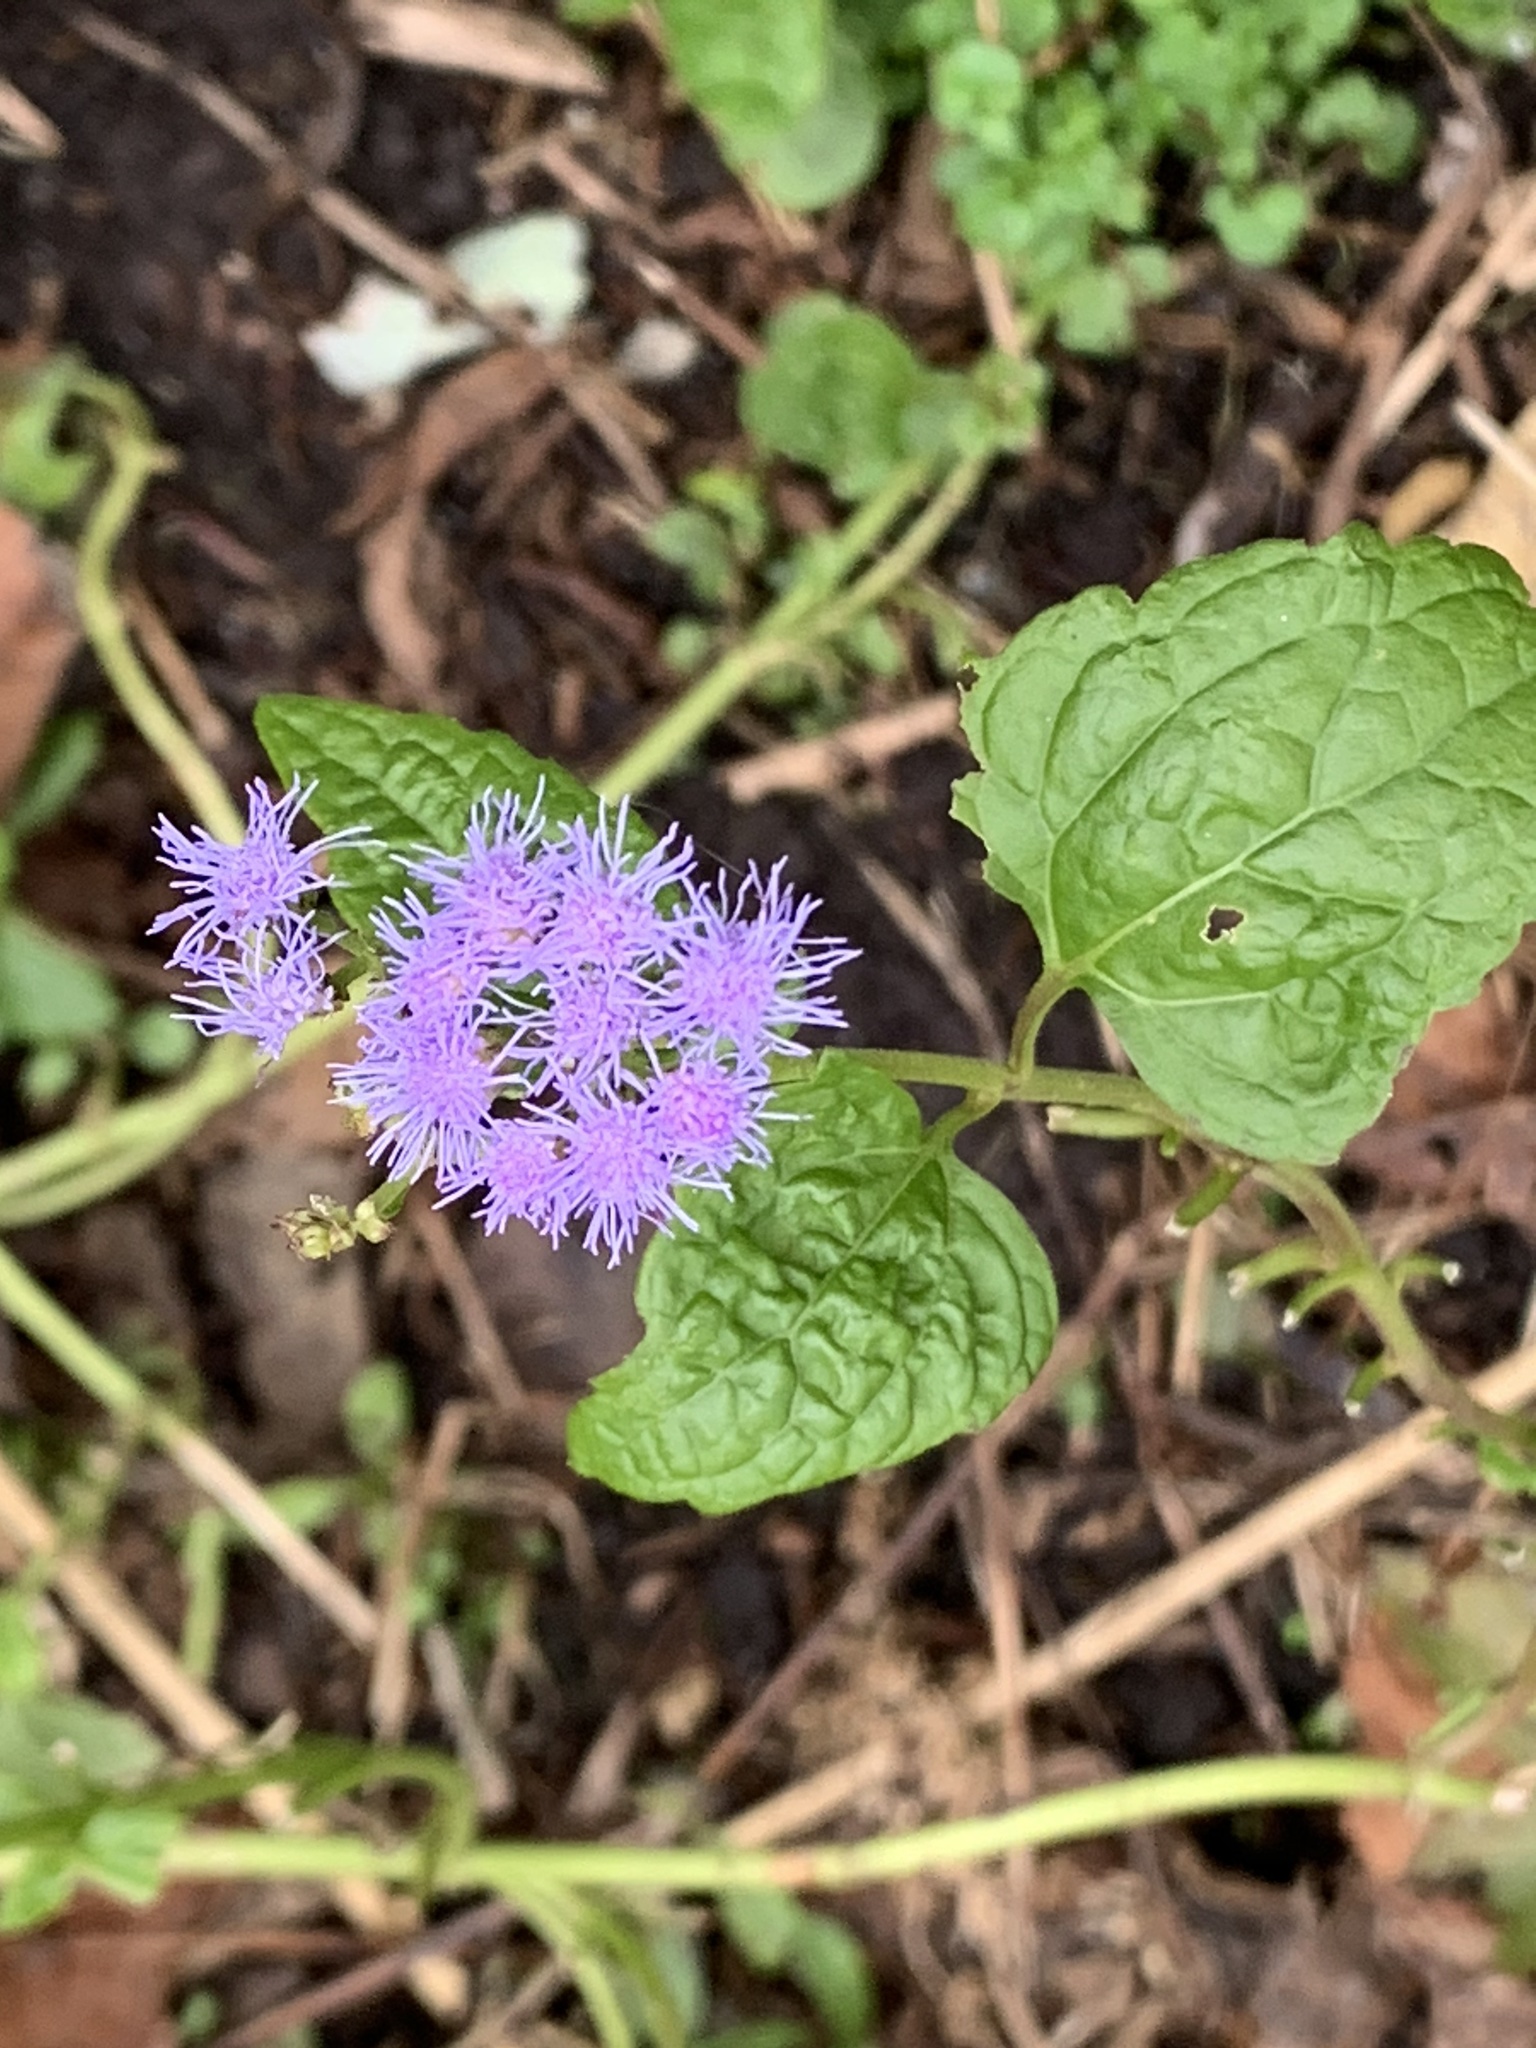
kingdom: Plantae
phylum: Tracheophyta
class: Magnoliopsida
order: Asterales
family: Asteraceae
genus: Conoclinium
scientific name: Conoclinium coelestinum
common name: Blue mistflower
